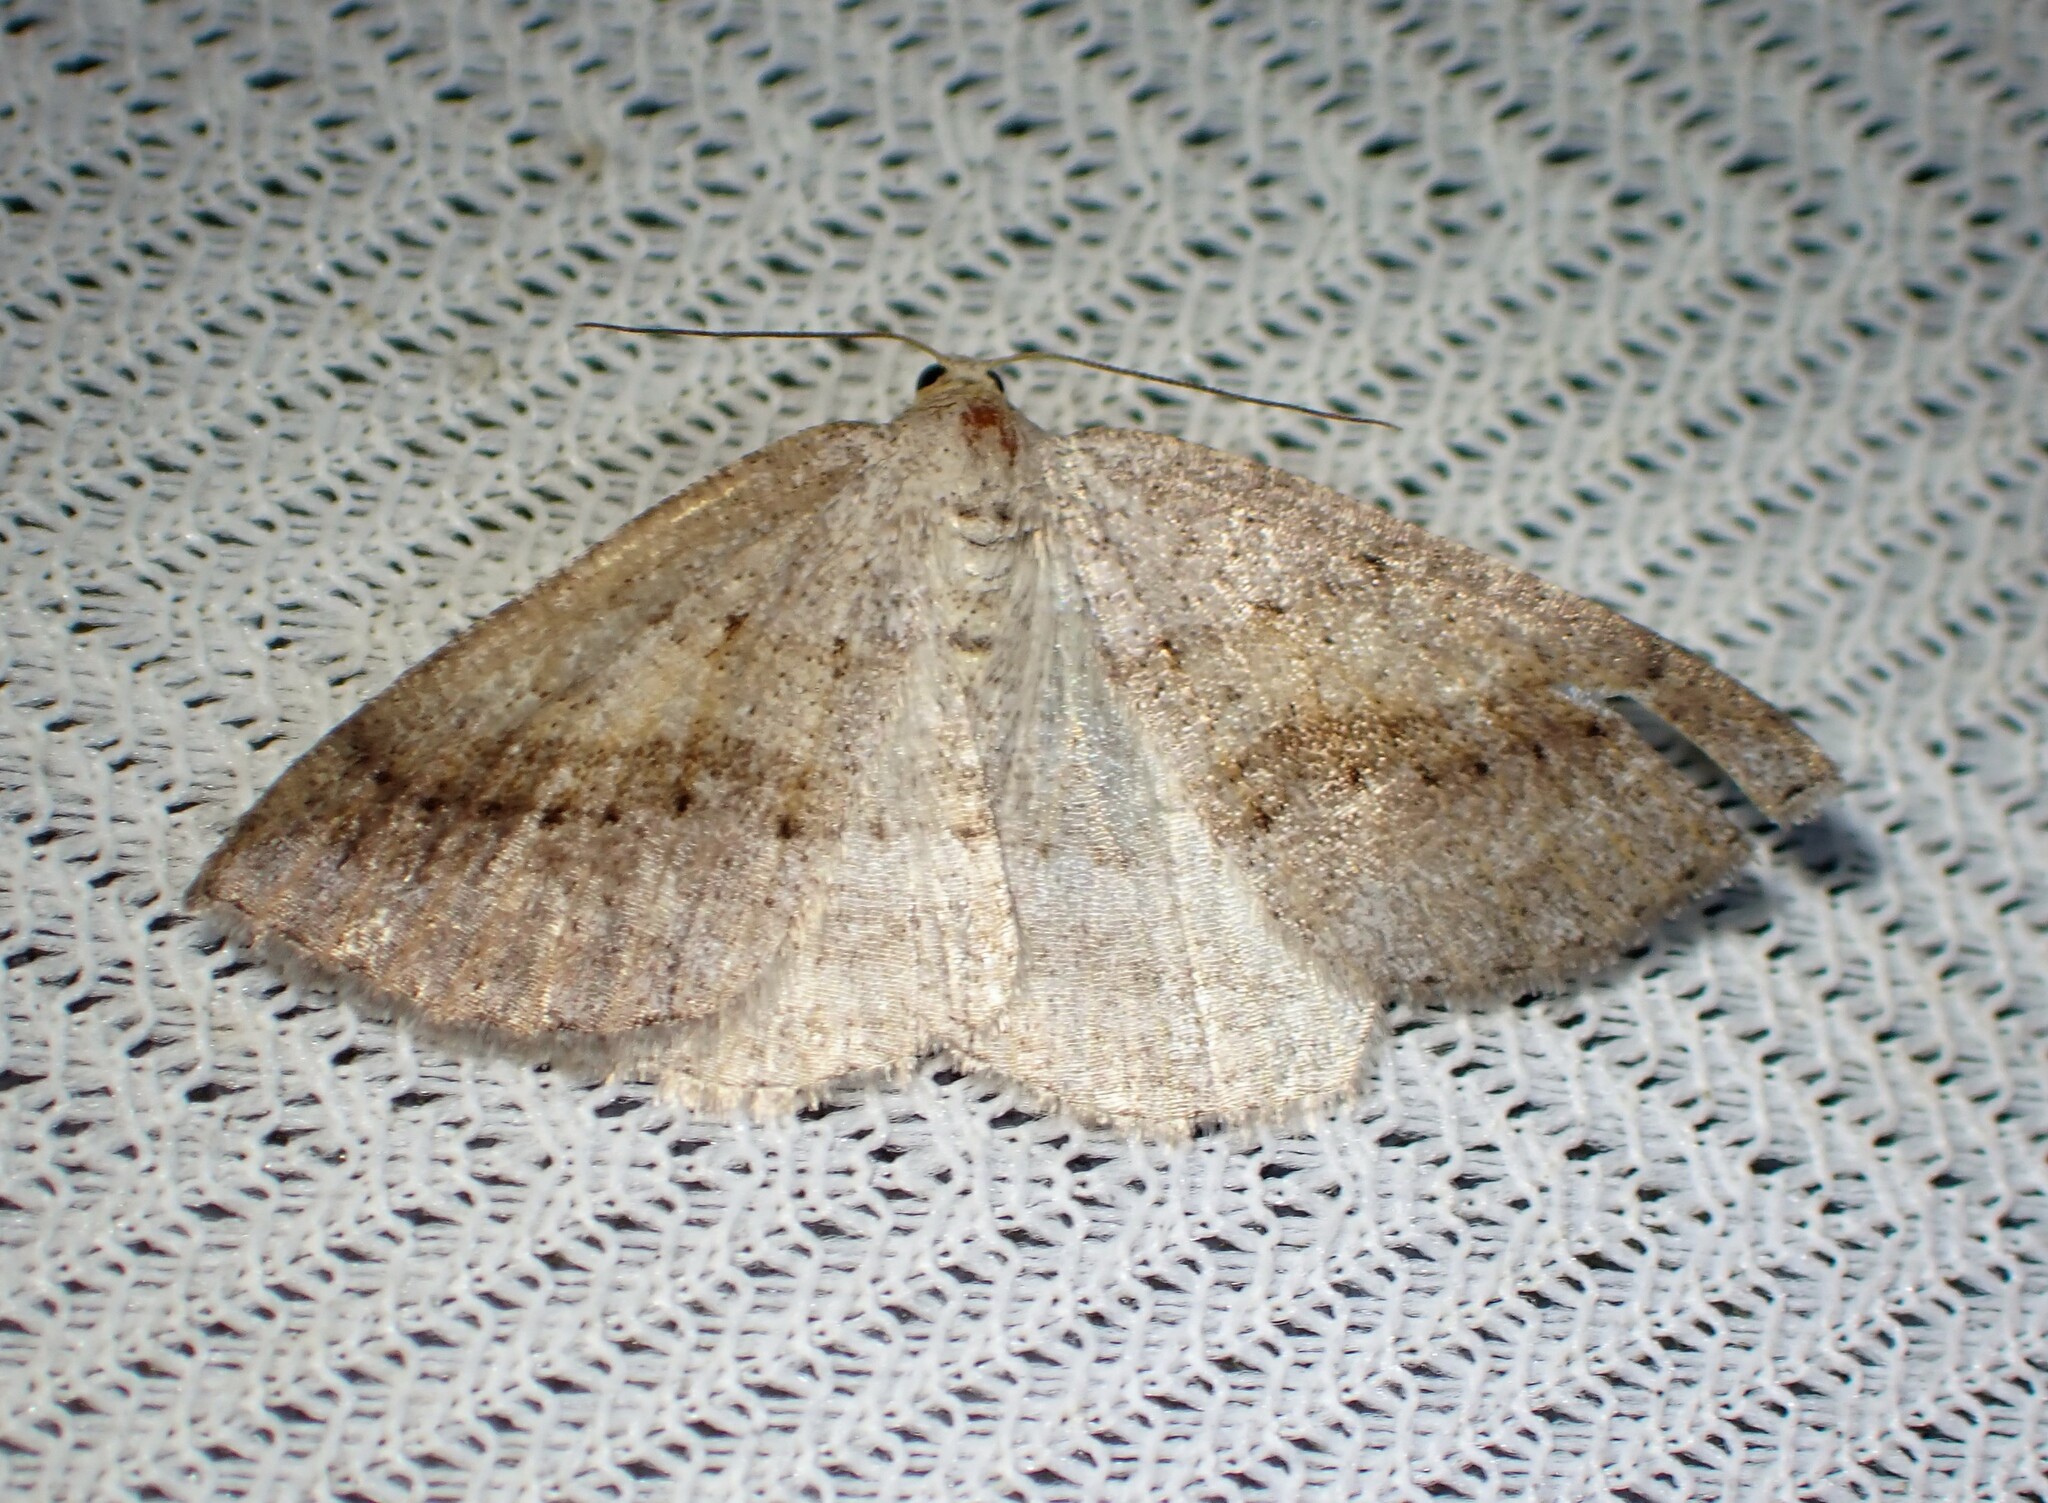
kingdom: Animalia
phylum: Arthropoda
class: Insecta
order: Lepidoptera
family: Geometridae
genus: Tacparia
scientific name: Tacparia detersata
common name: Pale alder moth
